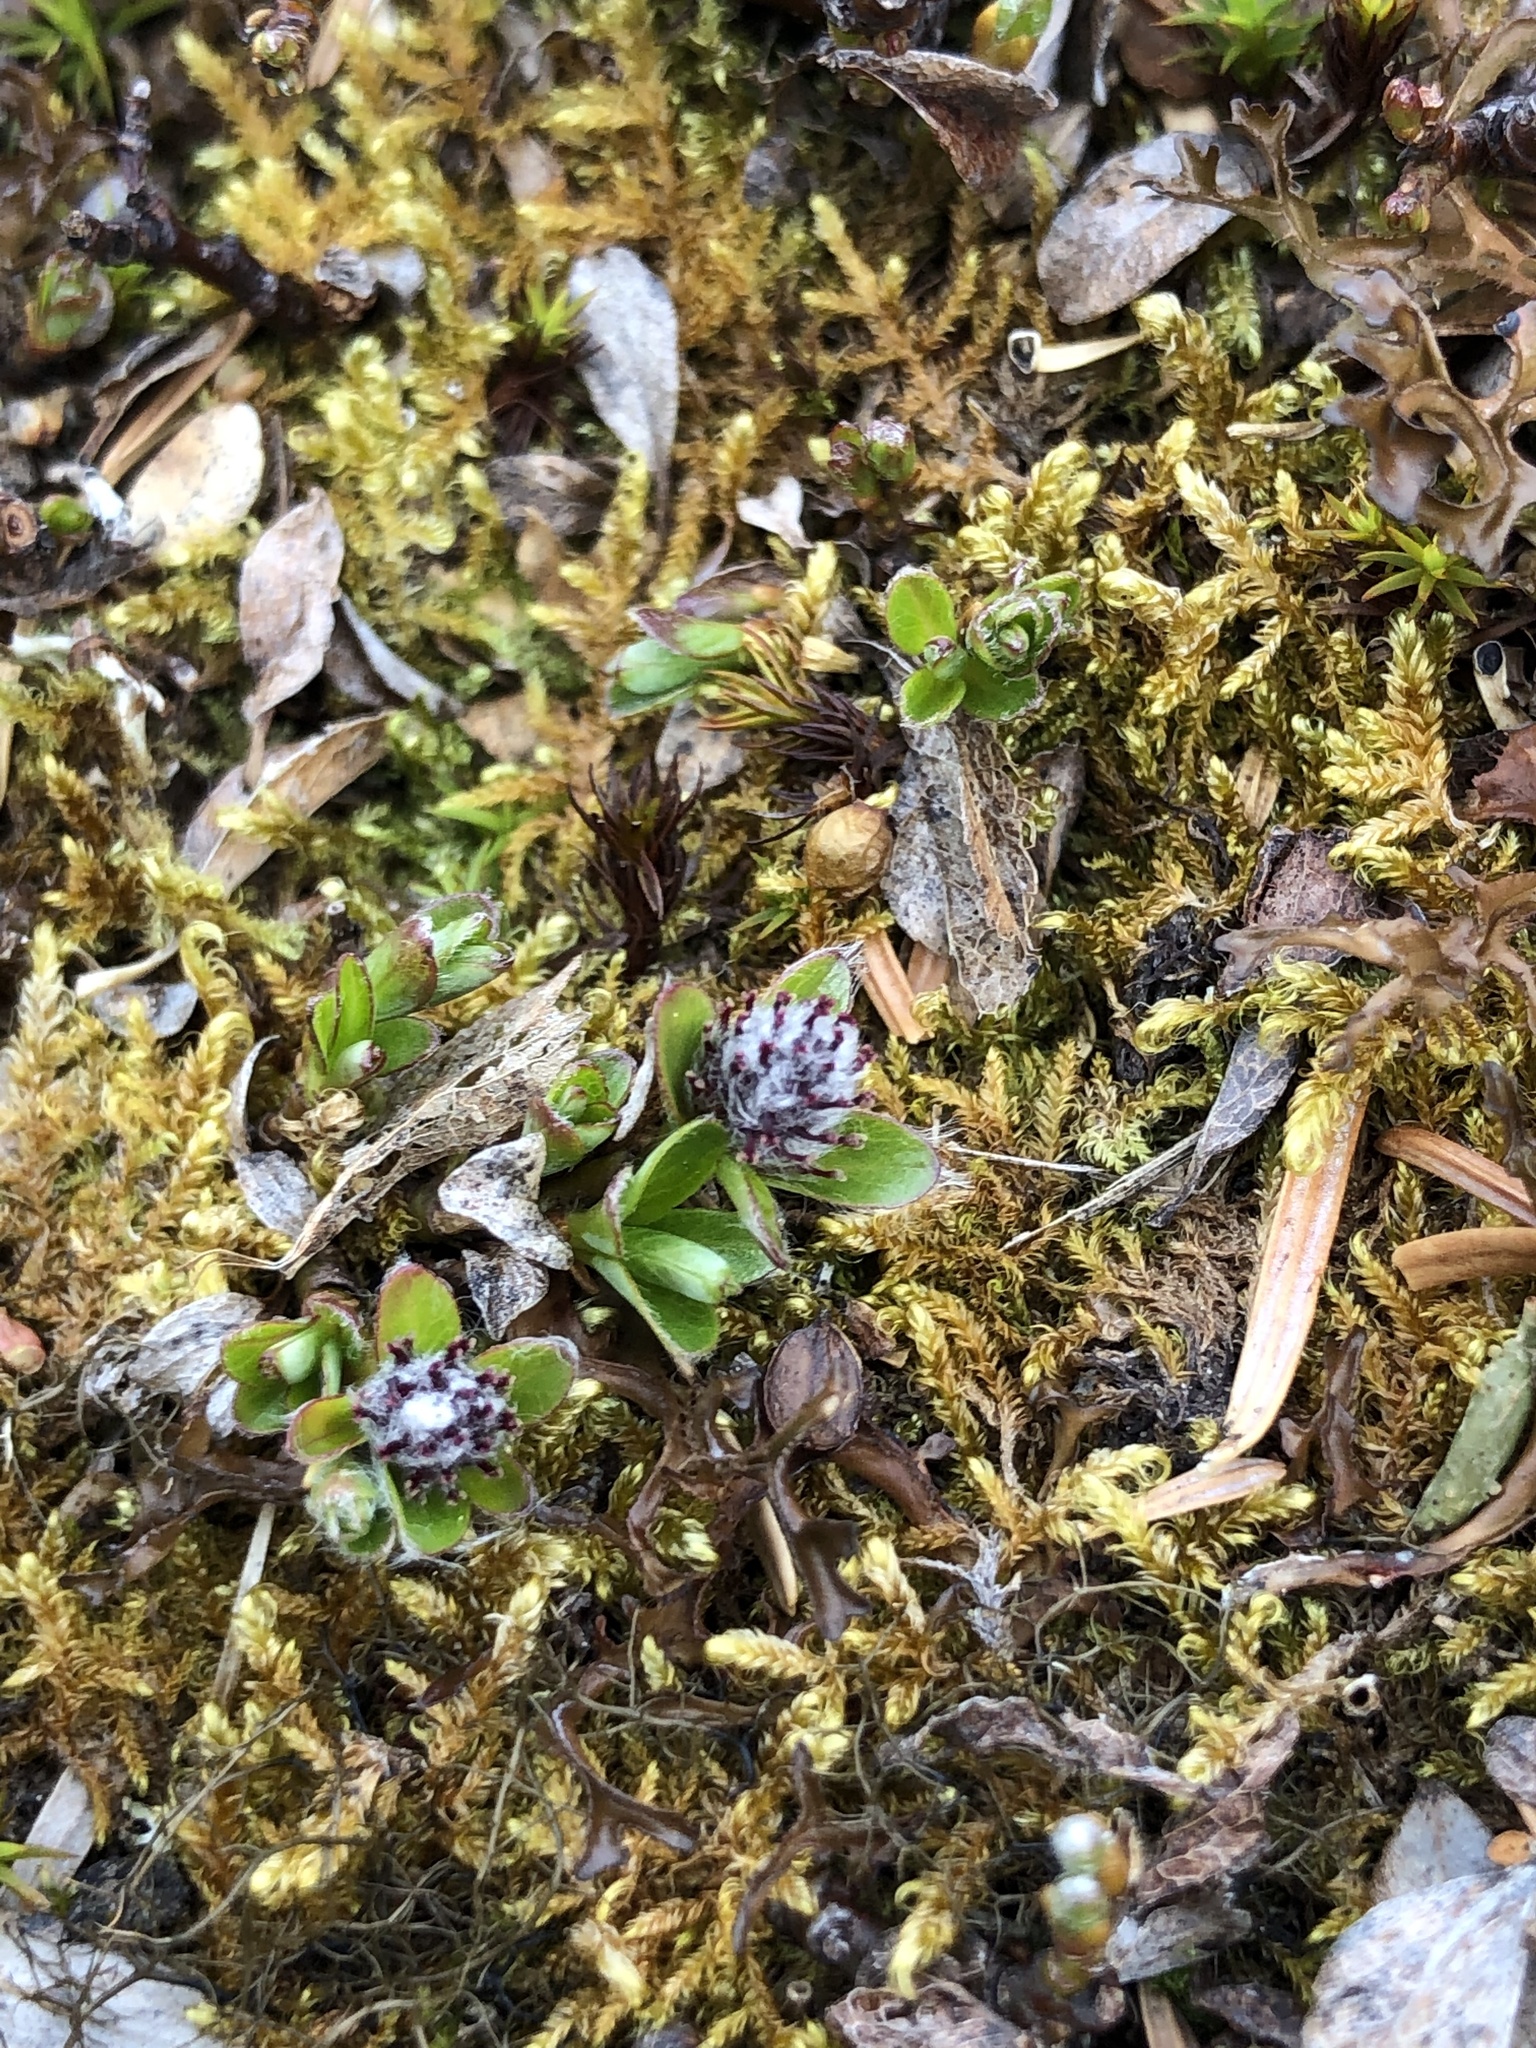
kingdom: Plantae
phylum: Tracheophyta
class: Magnoliopsida
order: Malpighiales
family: Salicaceae
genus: Salix
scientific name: Salix uva-ursi
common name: Bearberry willow
